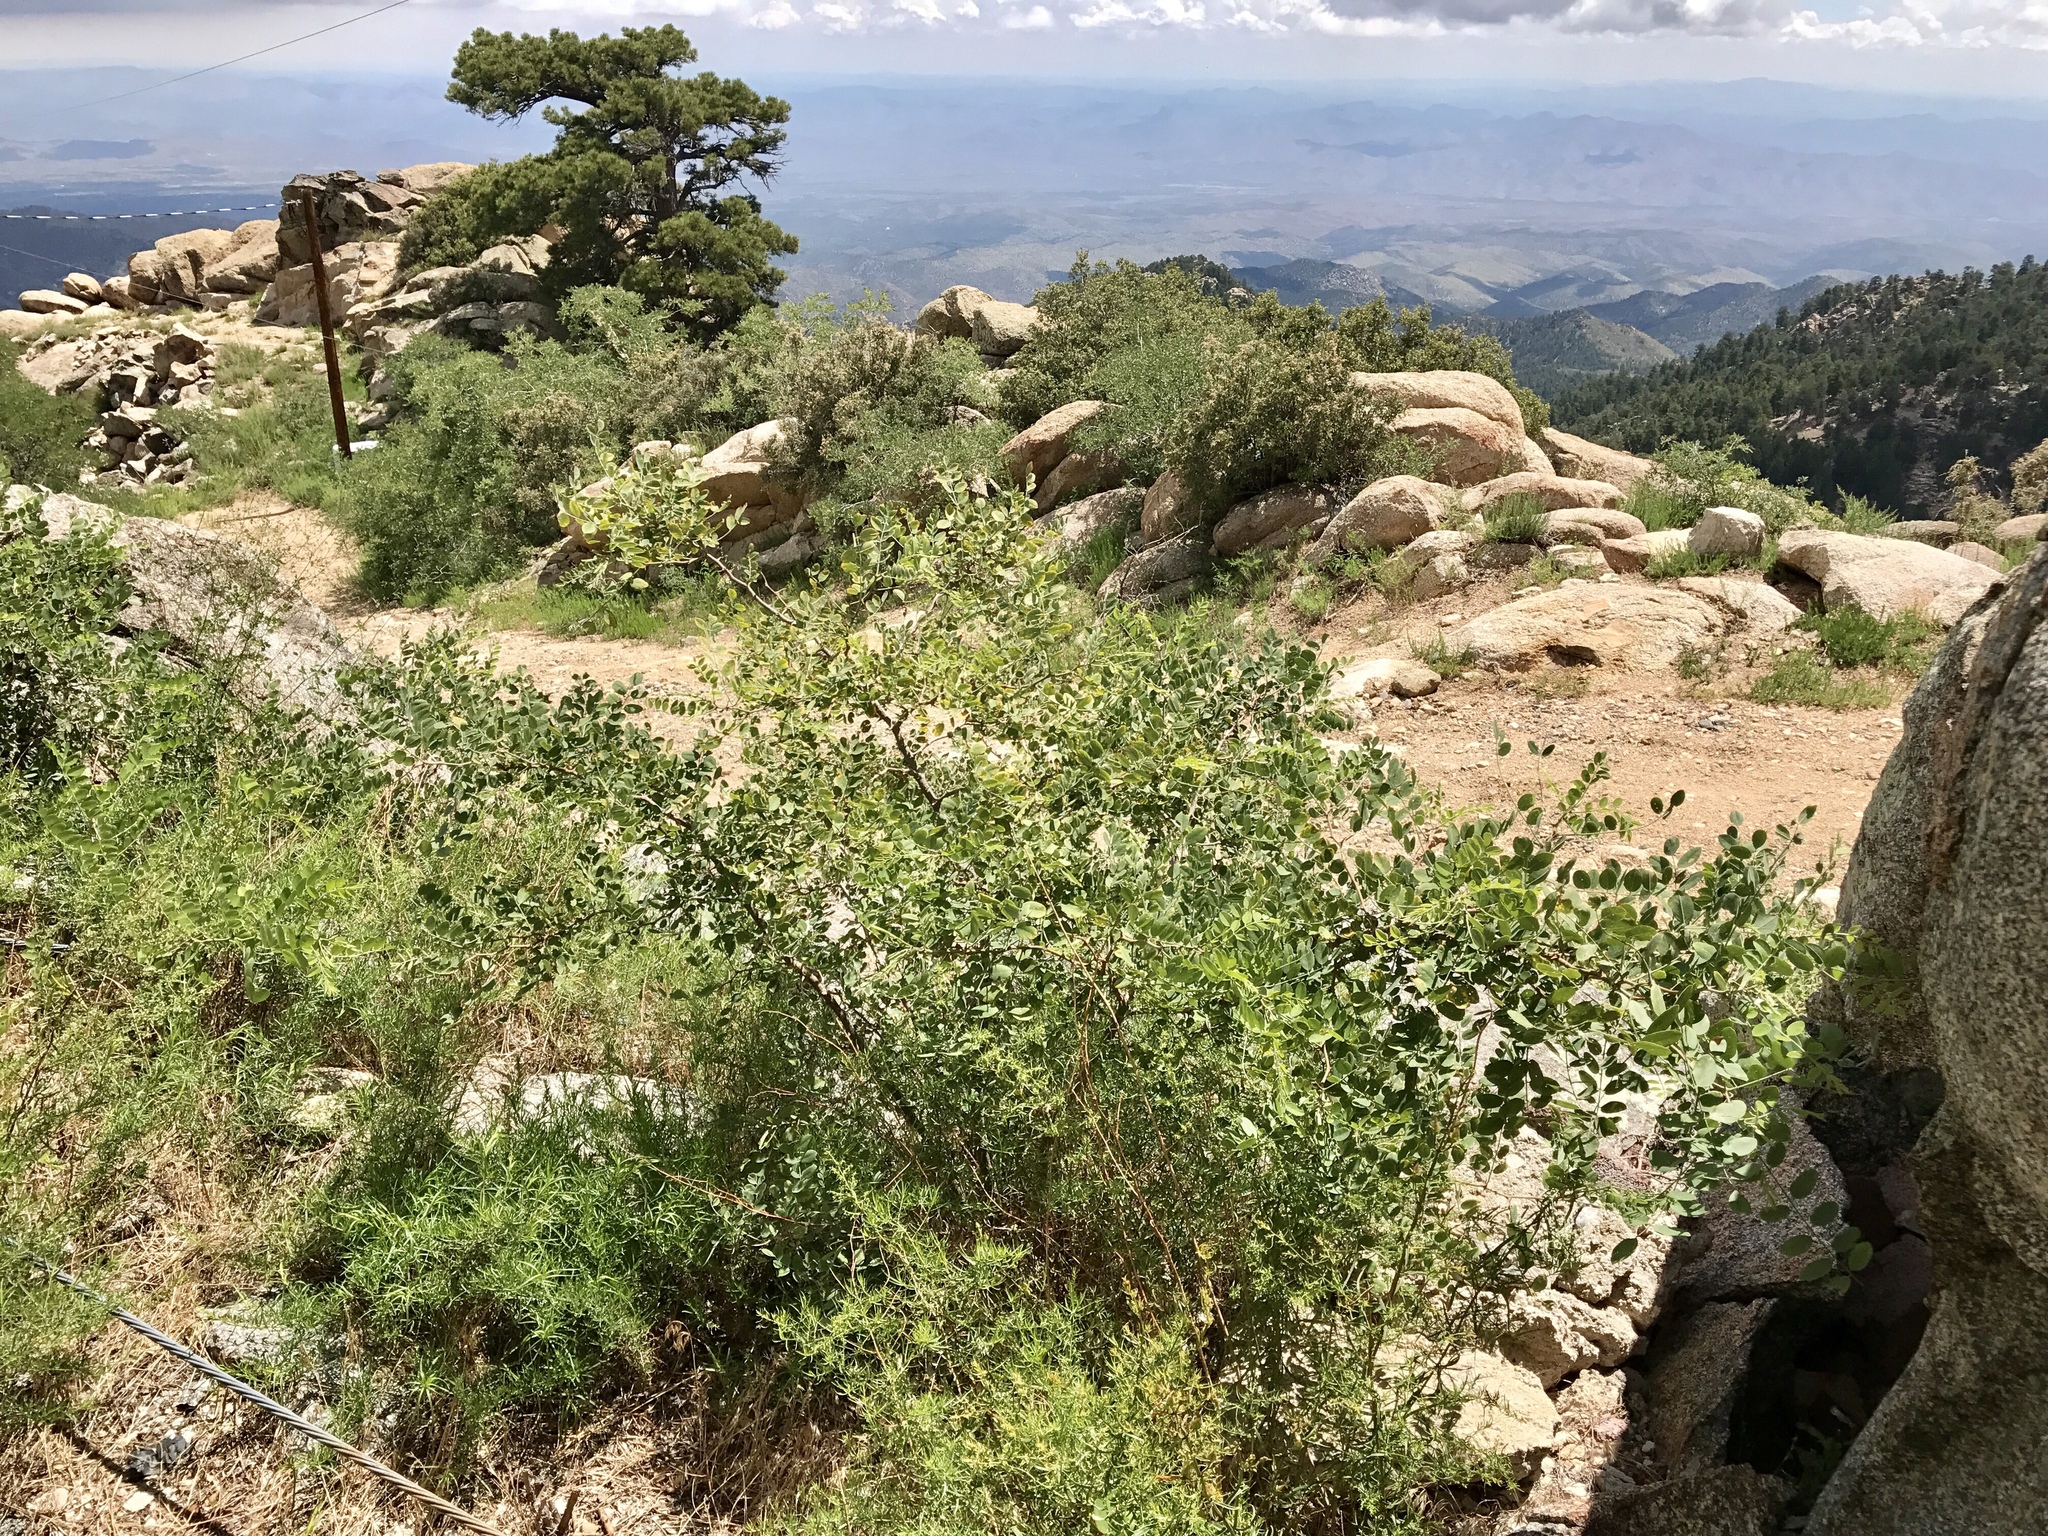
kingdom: Plantae
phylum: Tracheophyta
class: Magnoliopsida
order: Fabales
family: Fabaceae
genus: Robinia
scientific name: Robinia neomexicana
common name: New mexico locust
